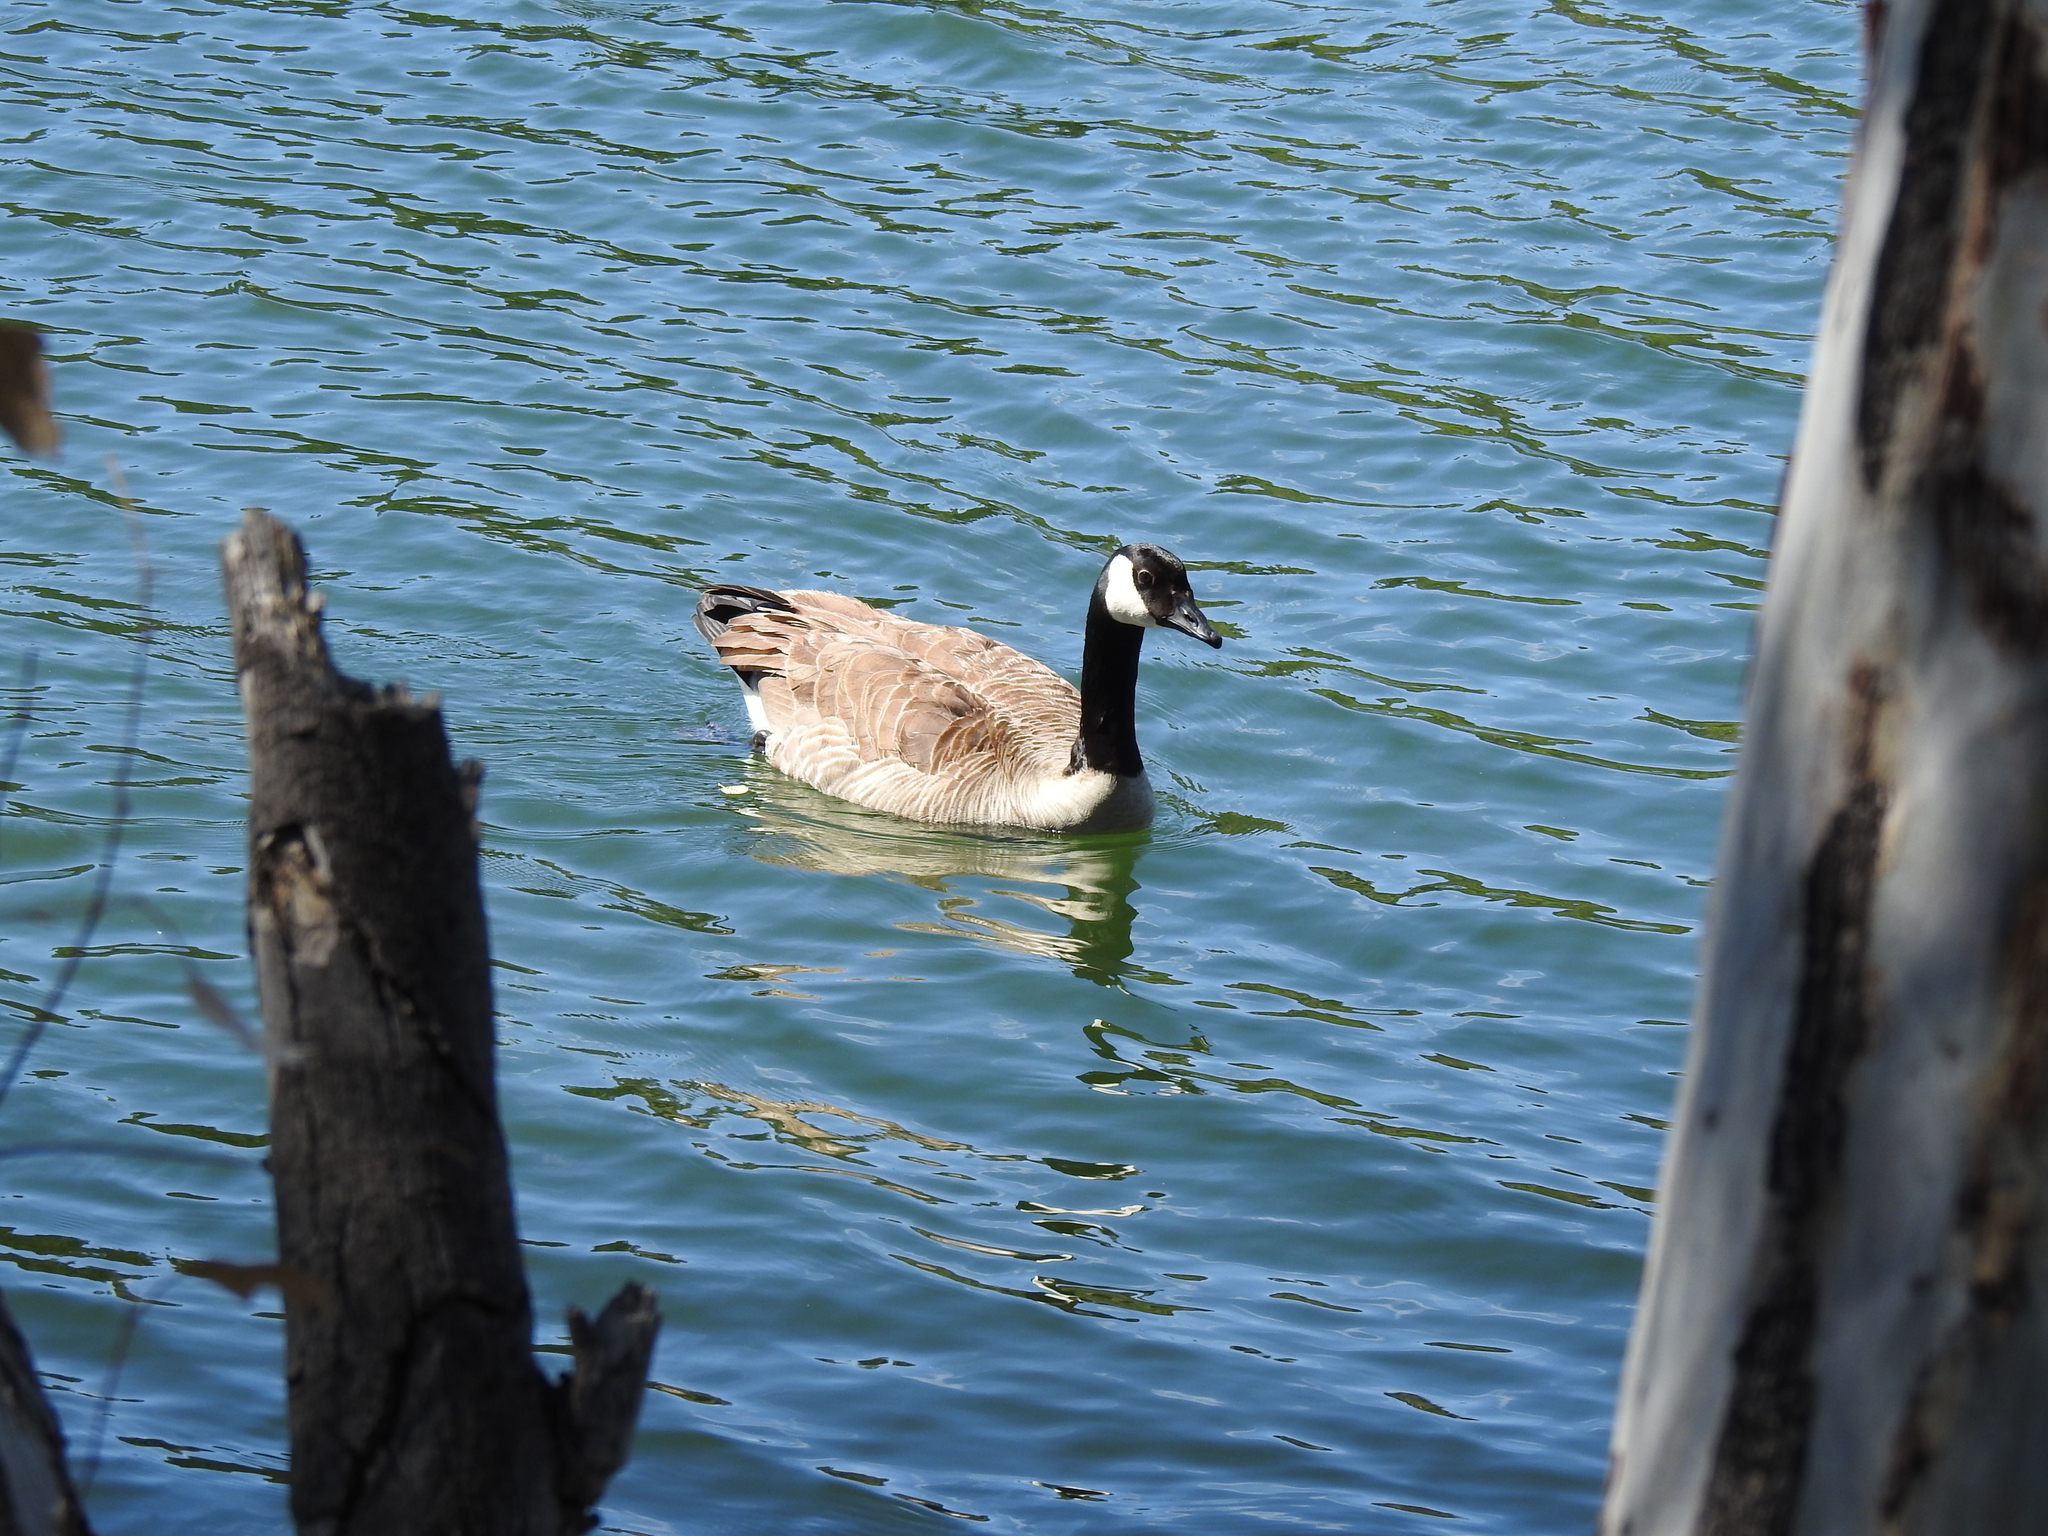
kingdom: Animalia
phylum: Chordata
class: Aves
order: Anseriformes
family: Anatidae
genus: Branta
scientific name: Branta canadensis
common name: Canada goose
